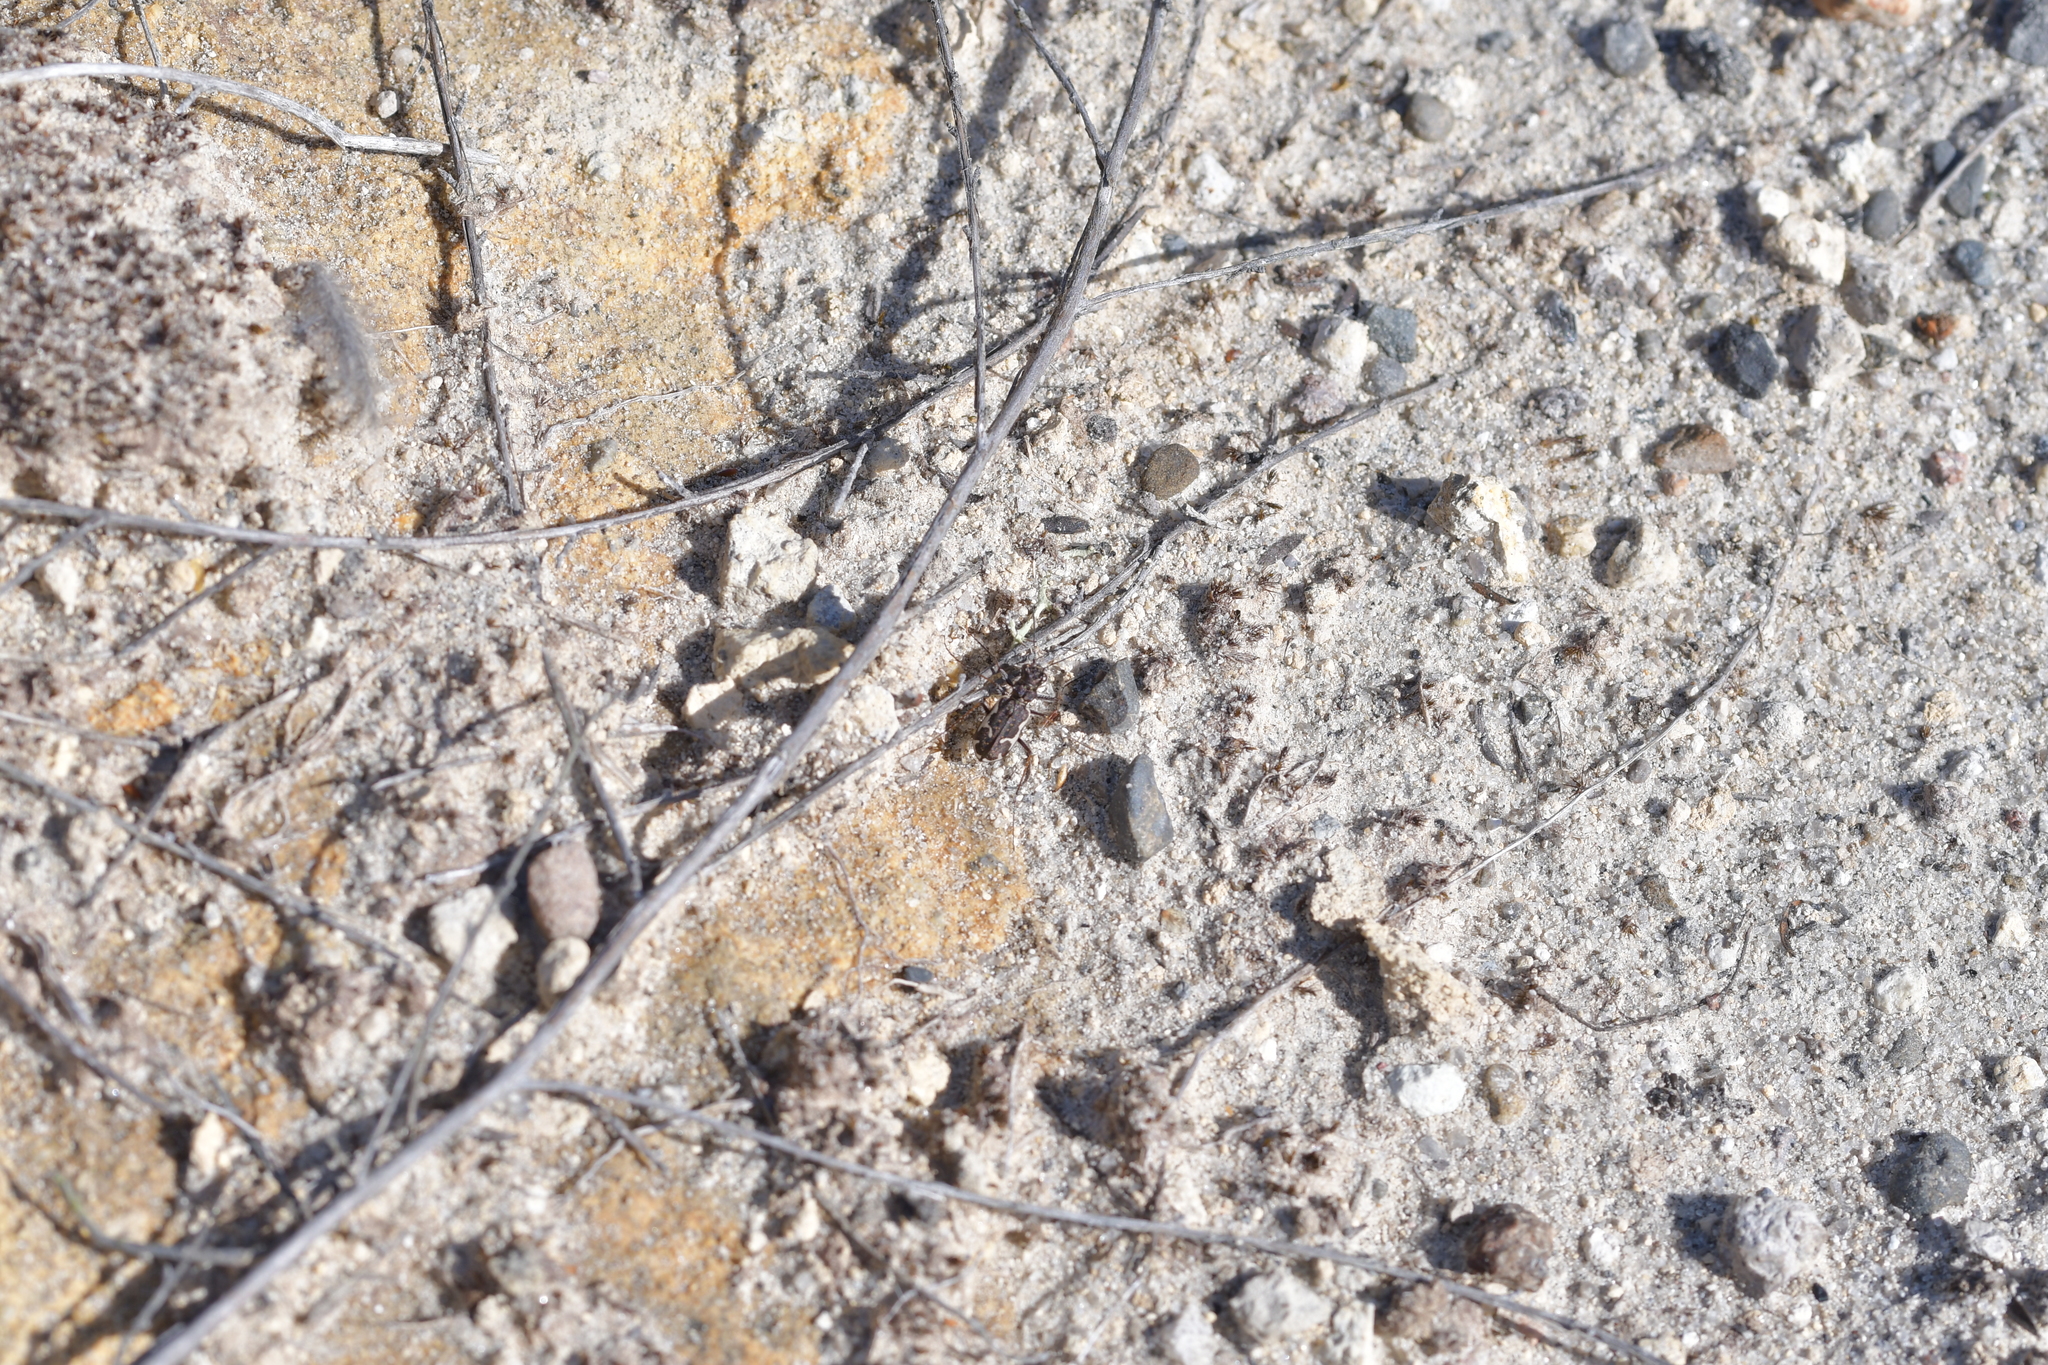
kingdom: Animalia
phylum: Arthropoda
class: Insecta
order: Coleoptera
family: Carabidae
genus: Neocicindela
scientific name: Neocicindela tuberculata
